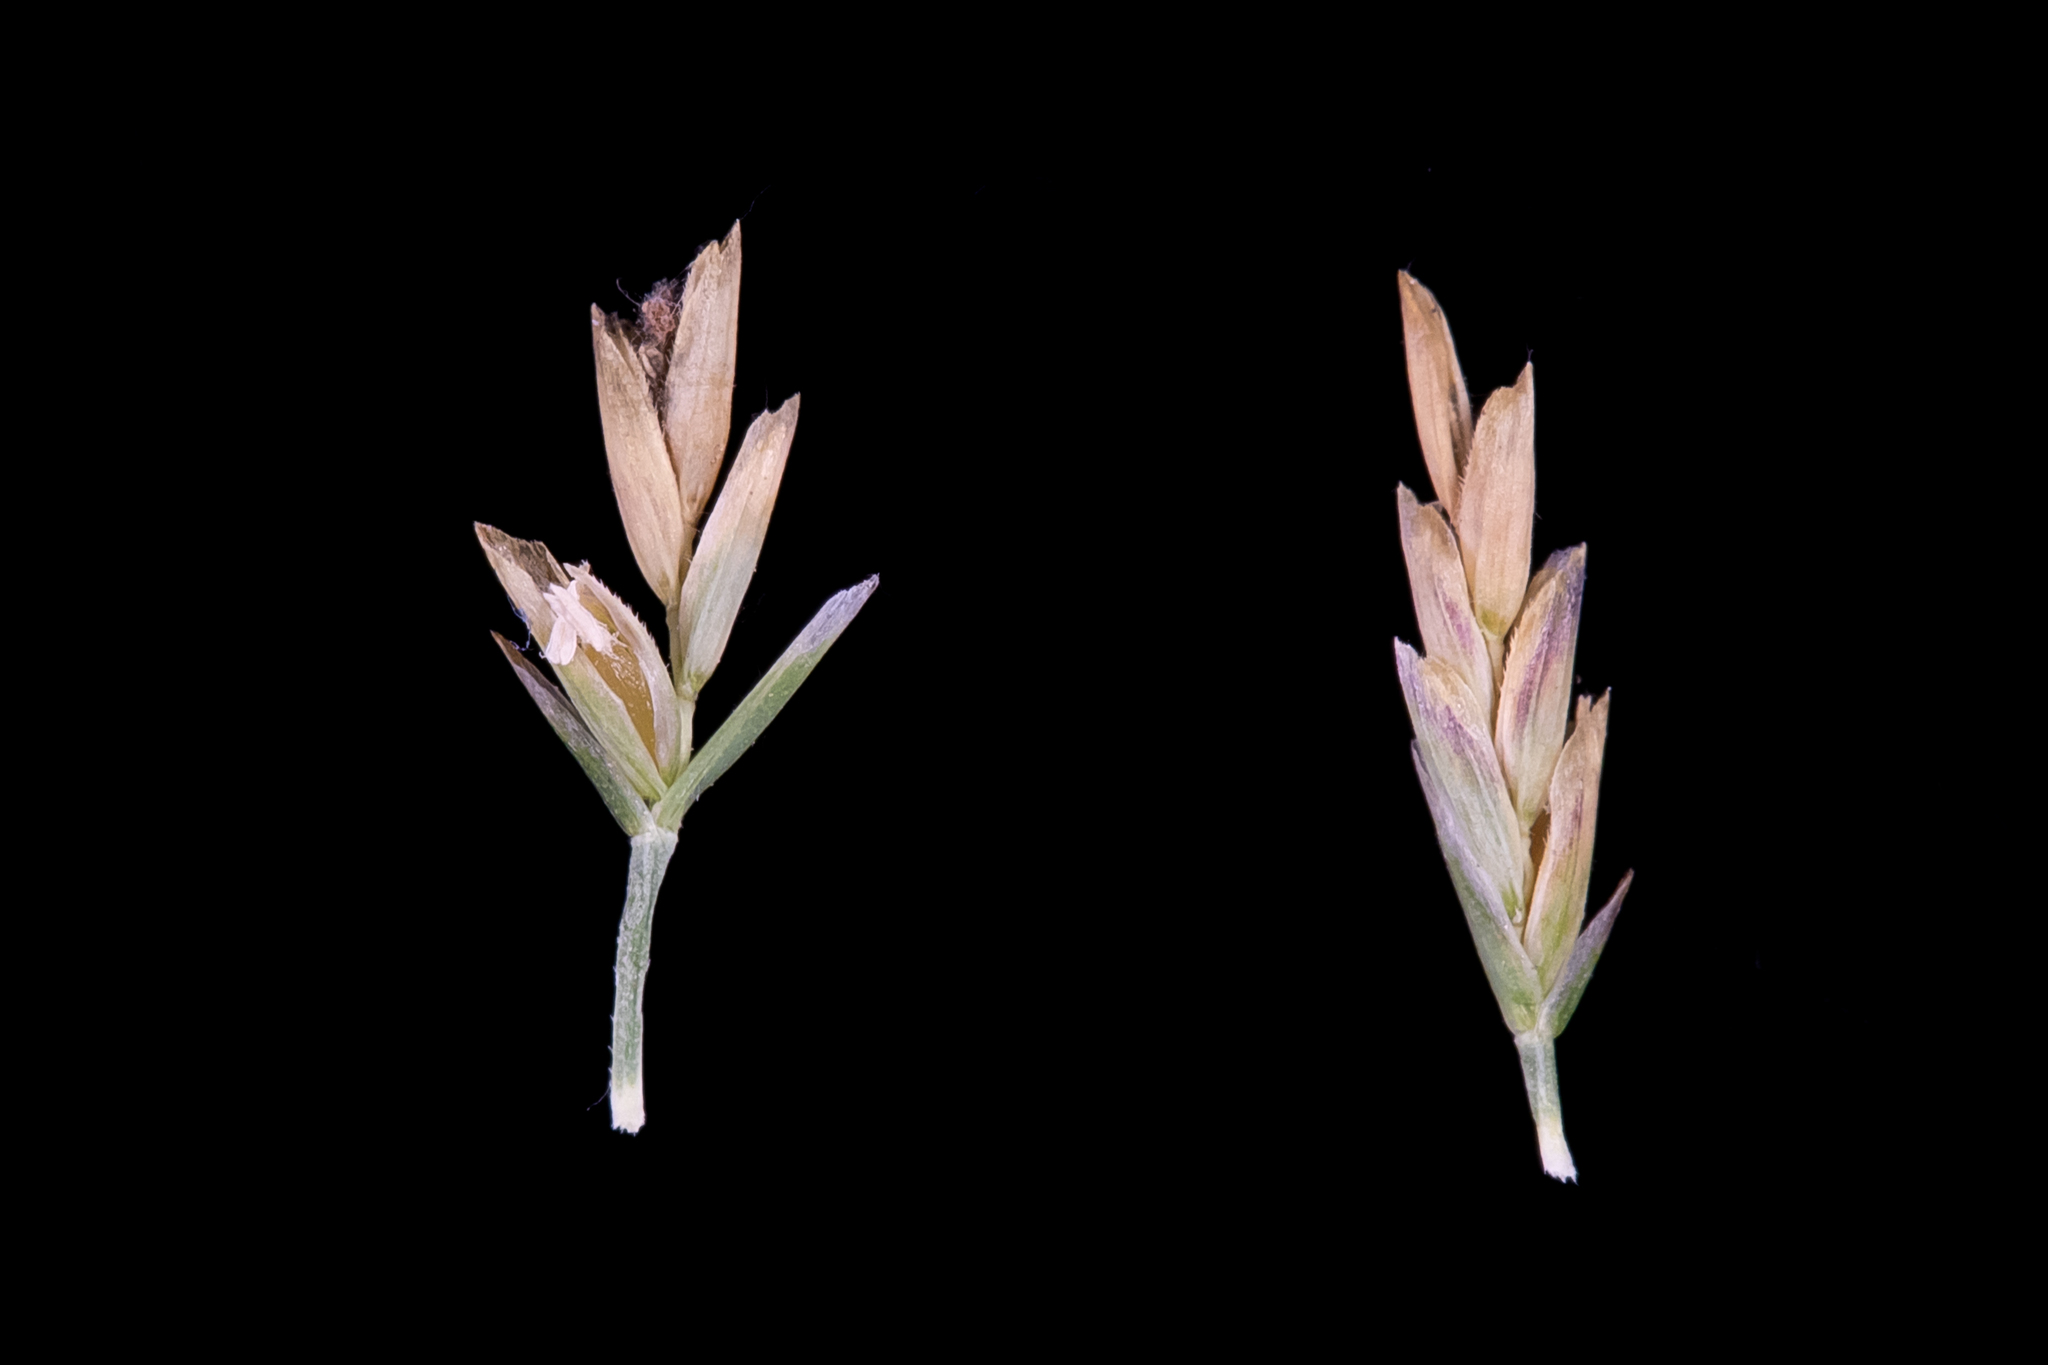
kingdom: Plantae
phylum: Tracheophyta
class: Liliopsida
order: Poales
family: Poaceae
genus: Puccinellia
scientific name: Puccinellia stricta
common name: Australian saltmarsh grass
